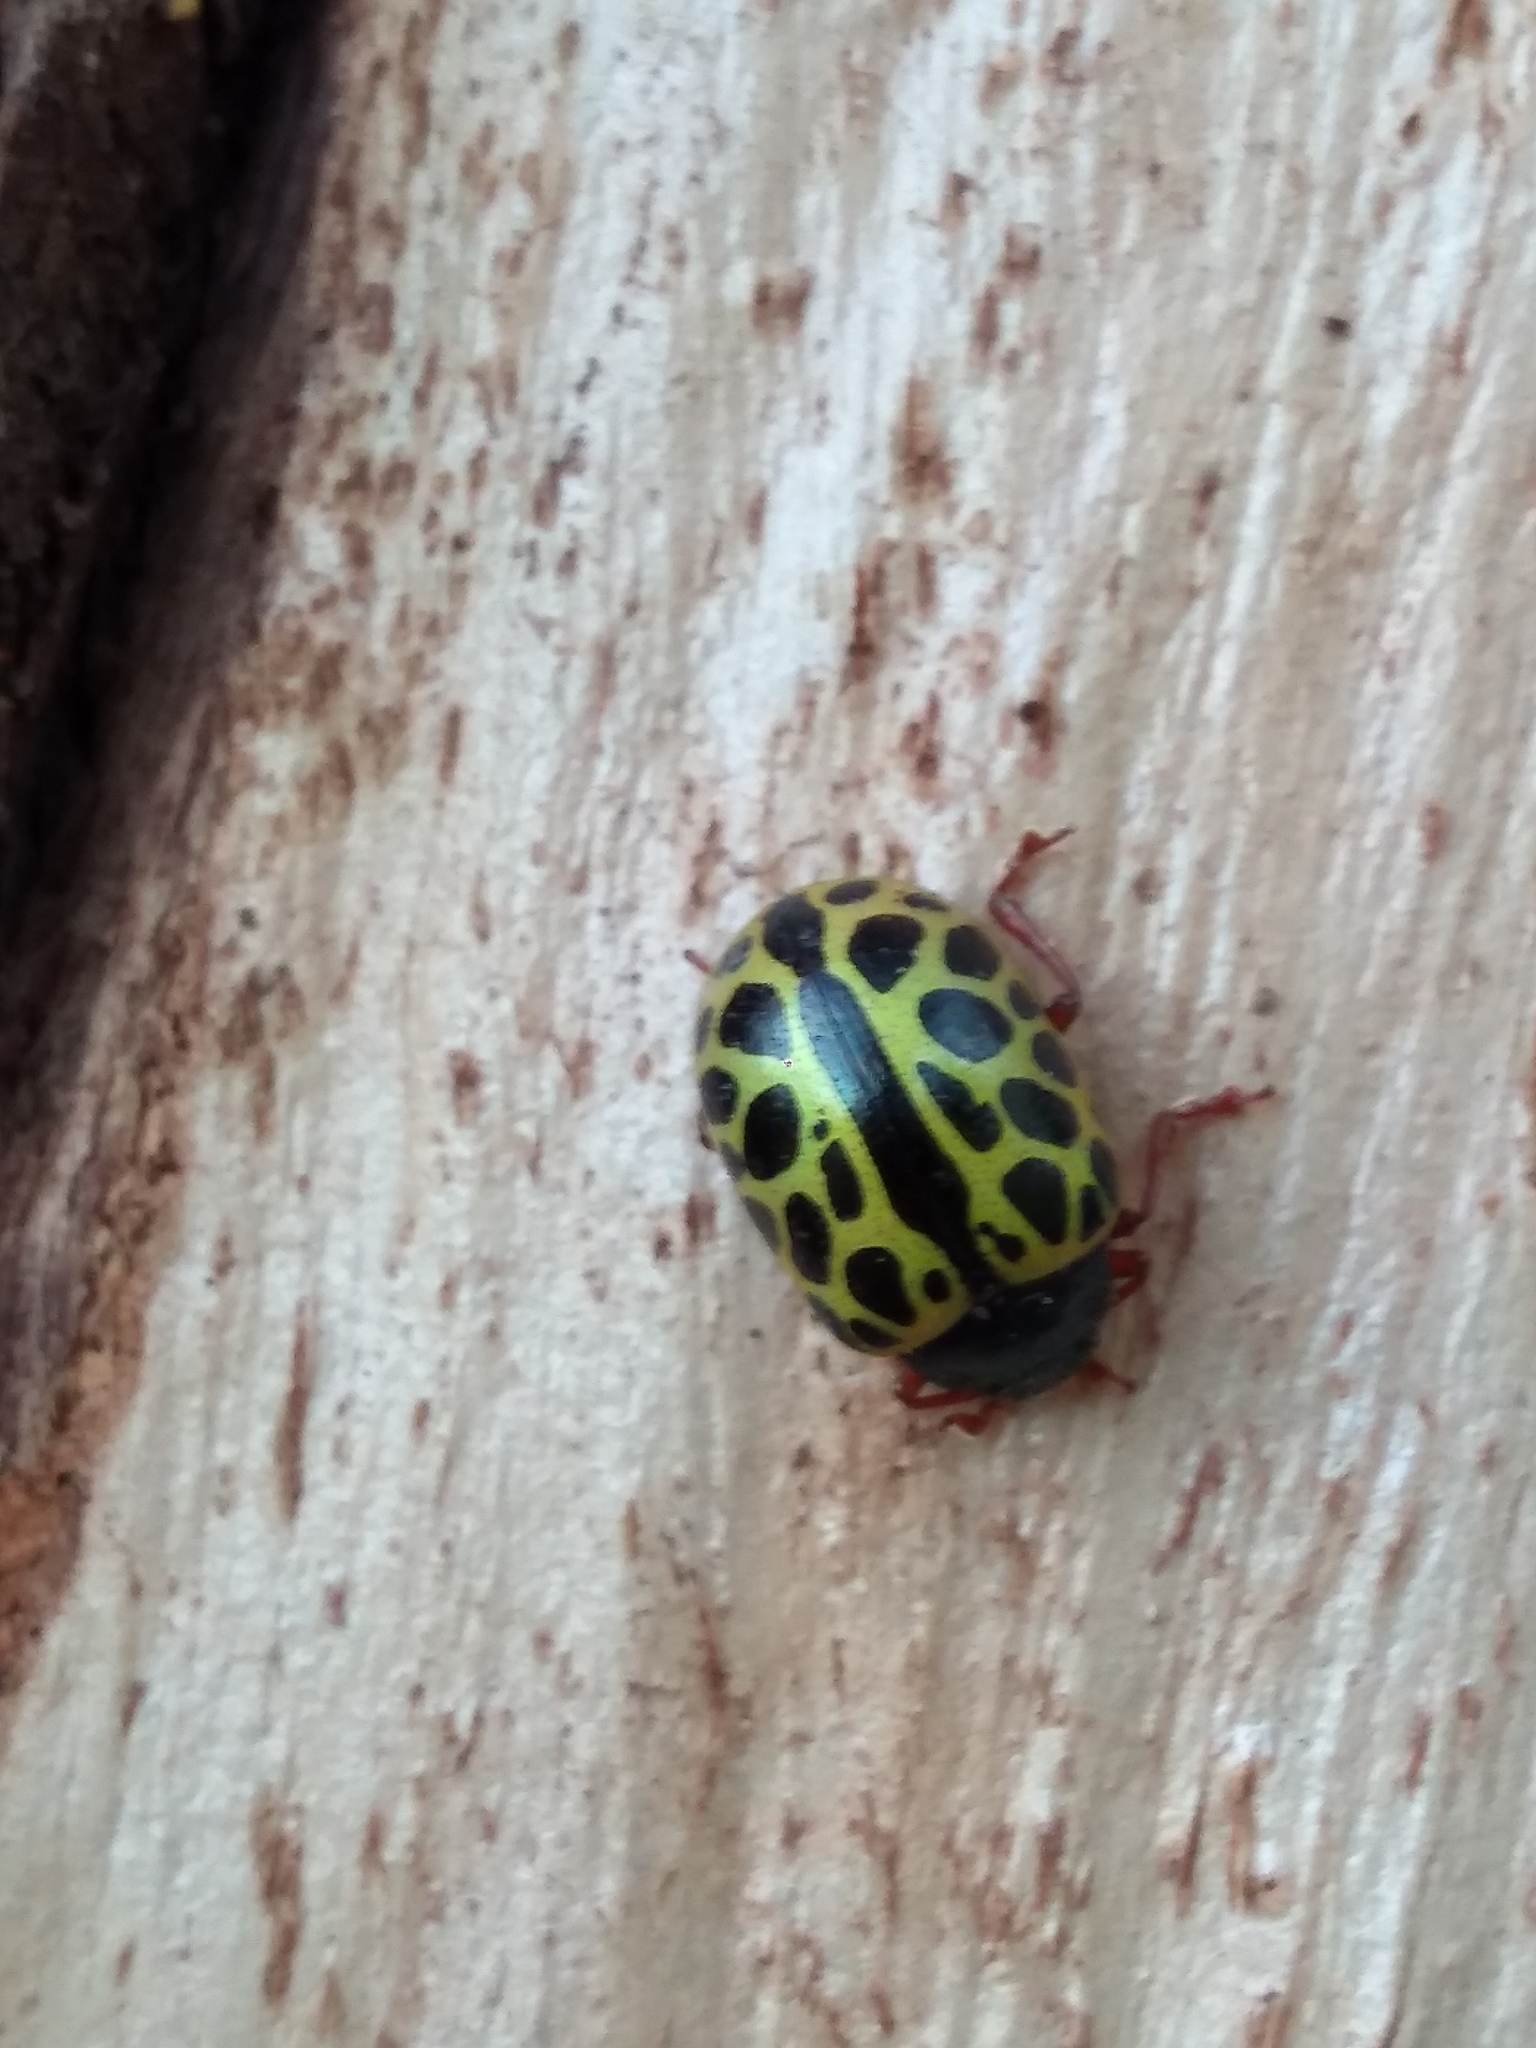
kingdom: Animalia
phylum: Arthropoda
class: Insecta
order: Coleoptera
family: Chrysomelidae
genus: Calligrapha
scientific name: Calligrapha polyspila
